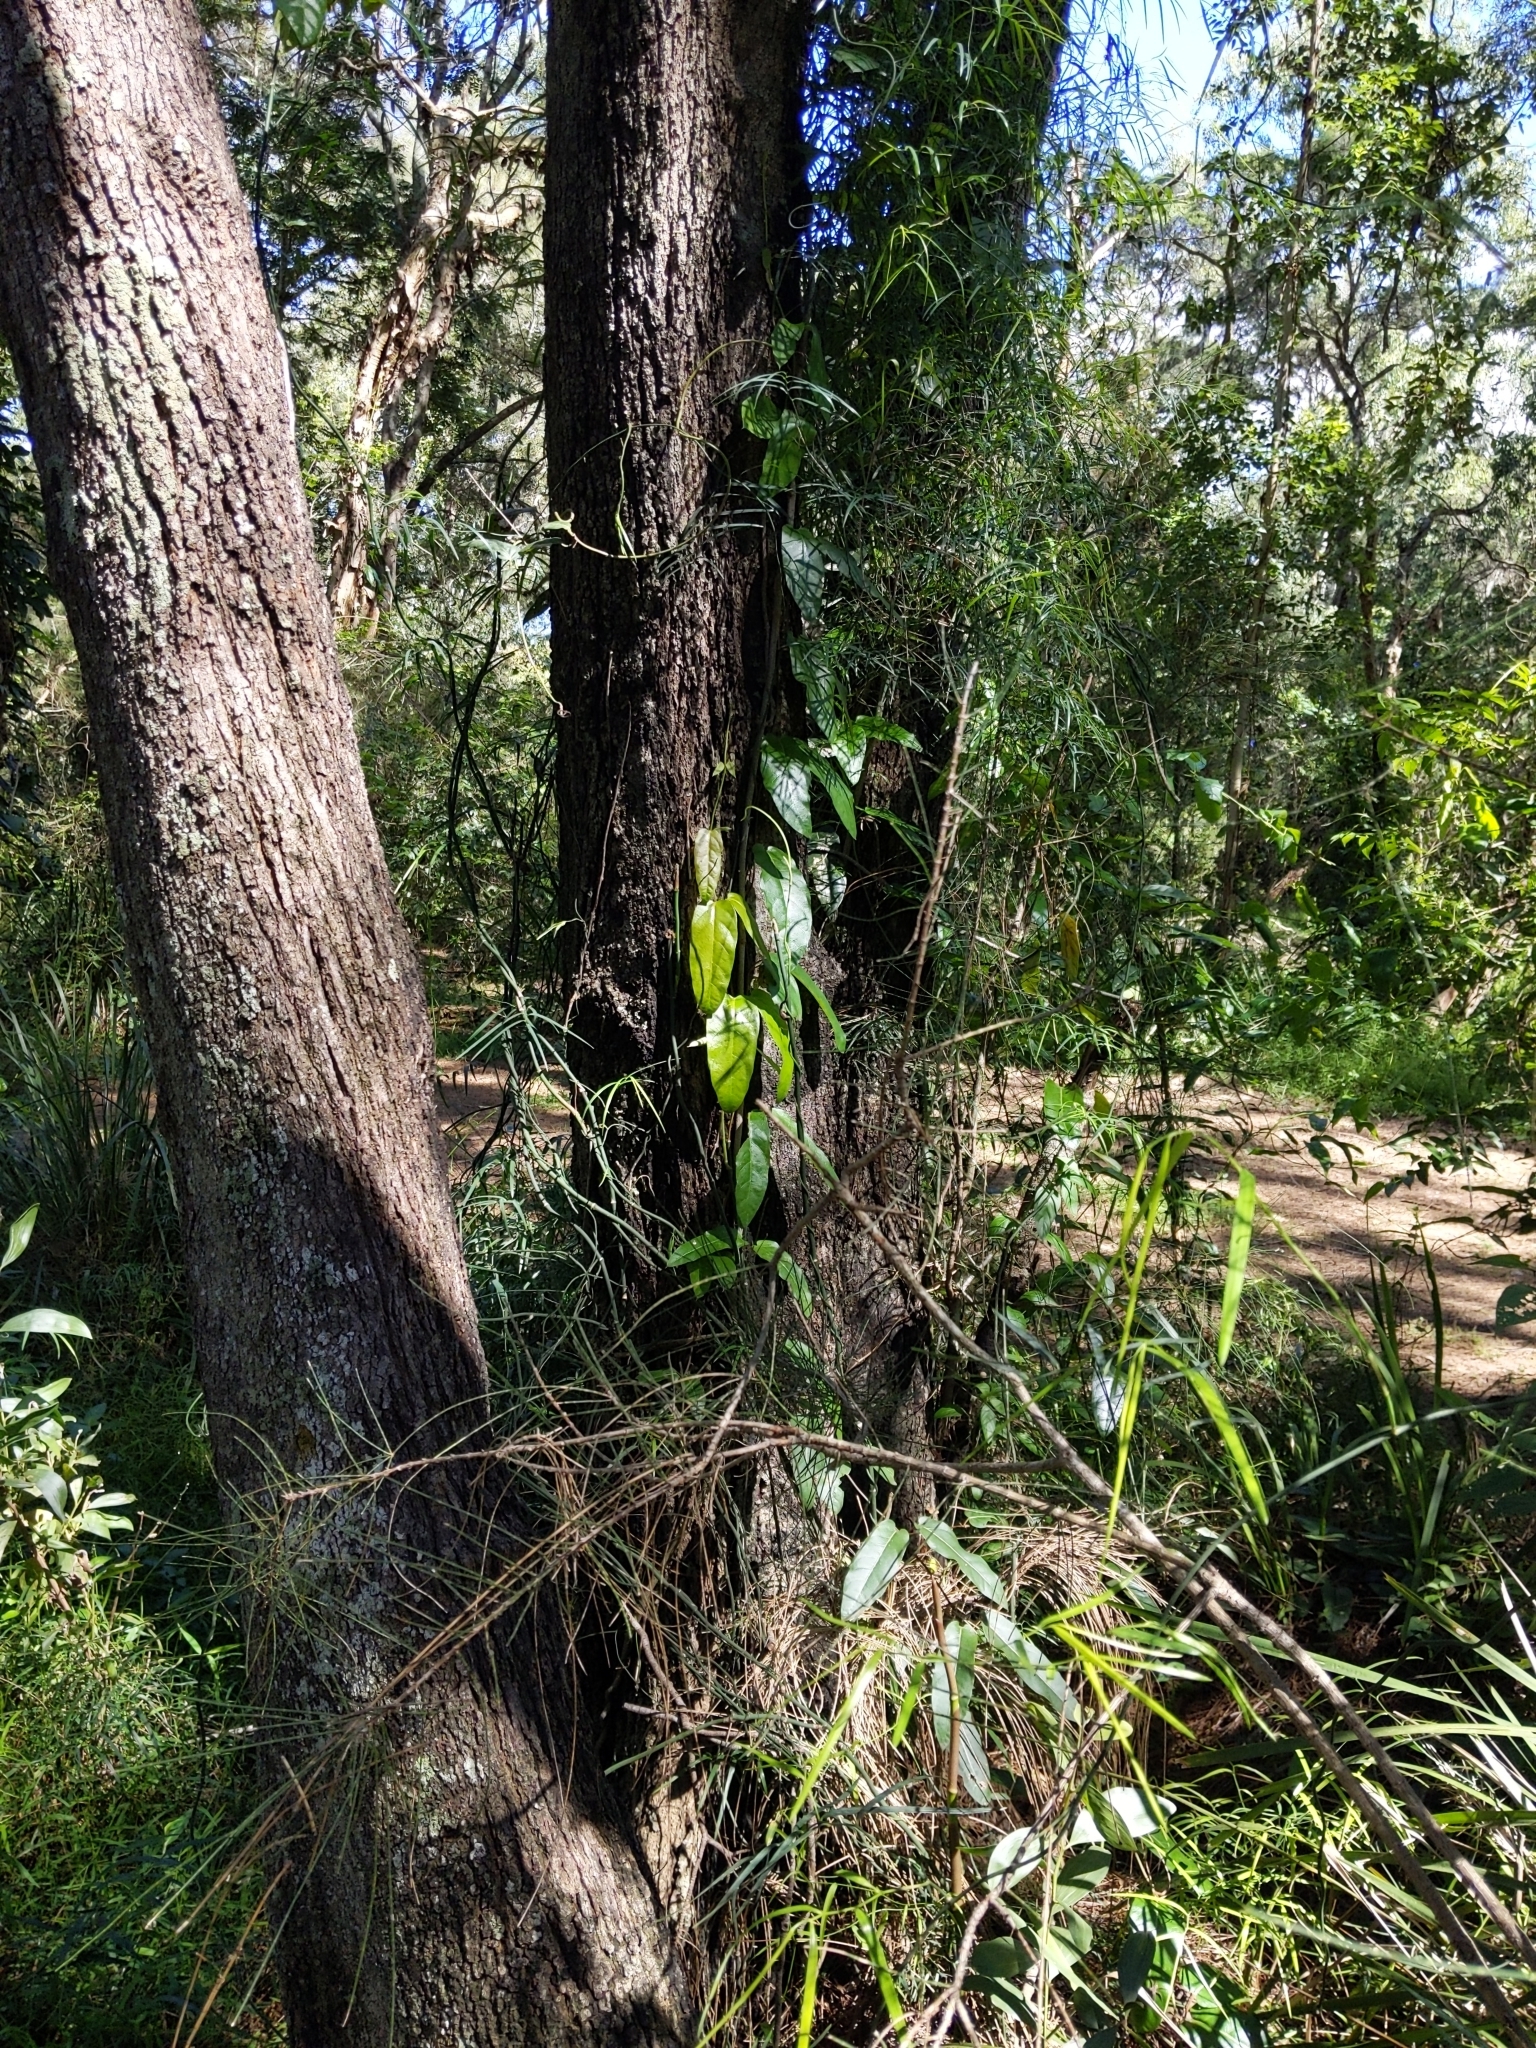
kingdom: Plantae
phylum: Tracheophyta
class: Magnoliopsida
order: Gentianales
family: Apocynaceae
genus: Parsonsia
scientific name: Parsonsia straminea
